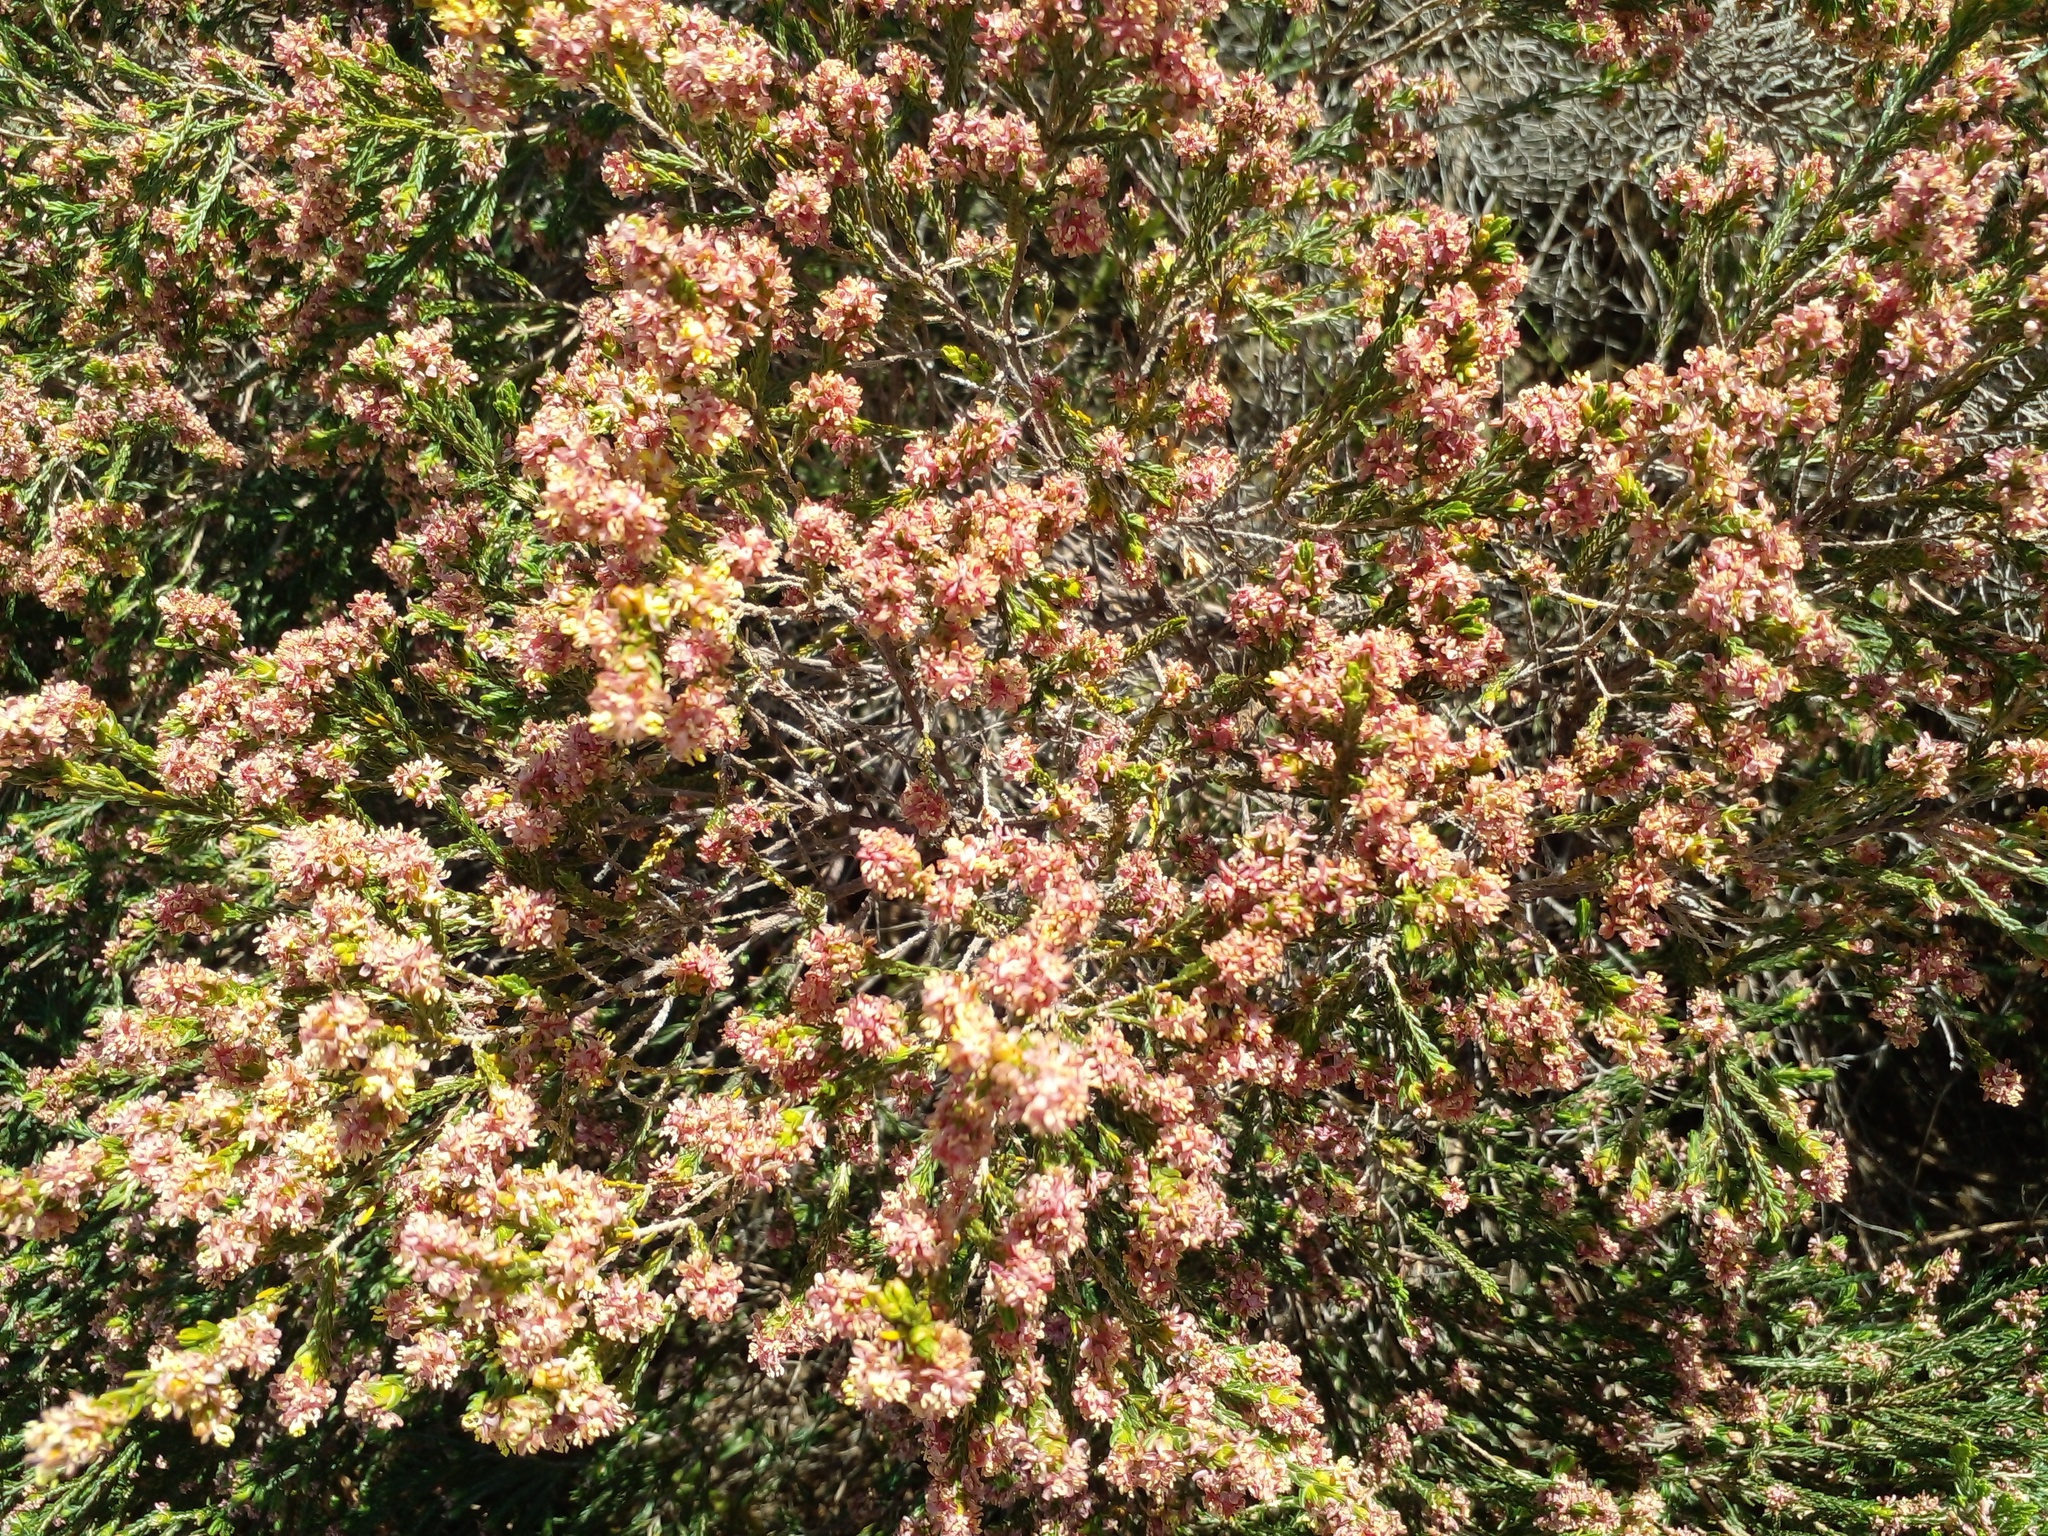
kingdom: Plantae
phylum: Tracheophyta
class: Magnoliopsida
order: Malvales
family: Thymelaeaceae
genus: Passerina
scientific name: Passerina corymbosa
